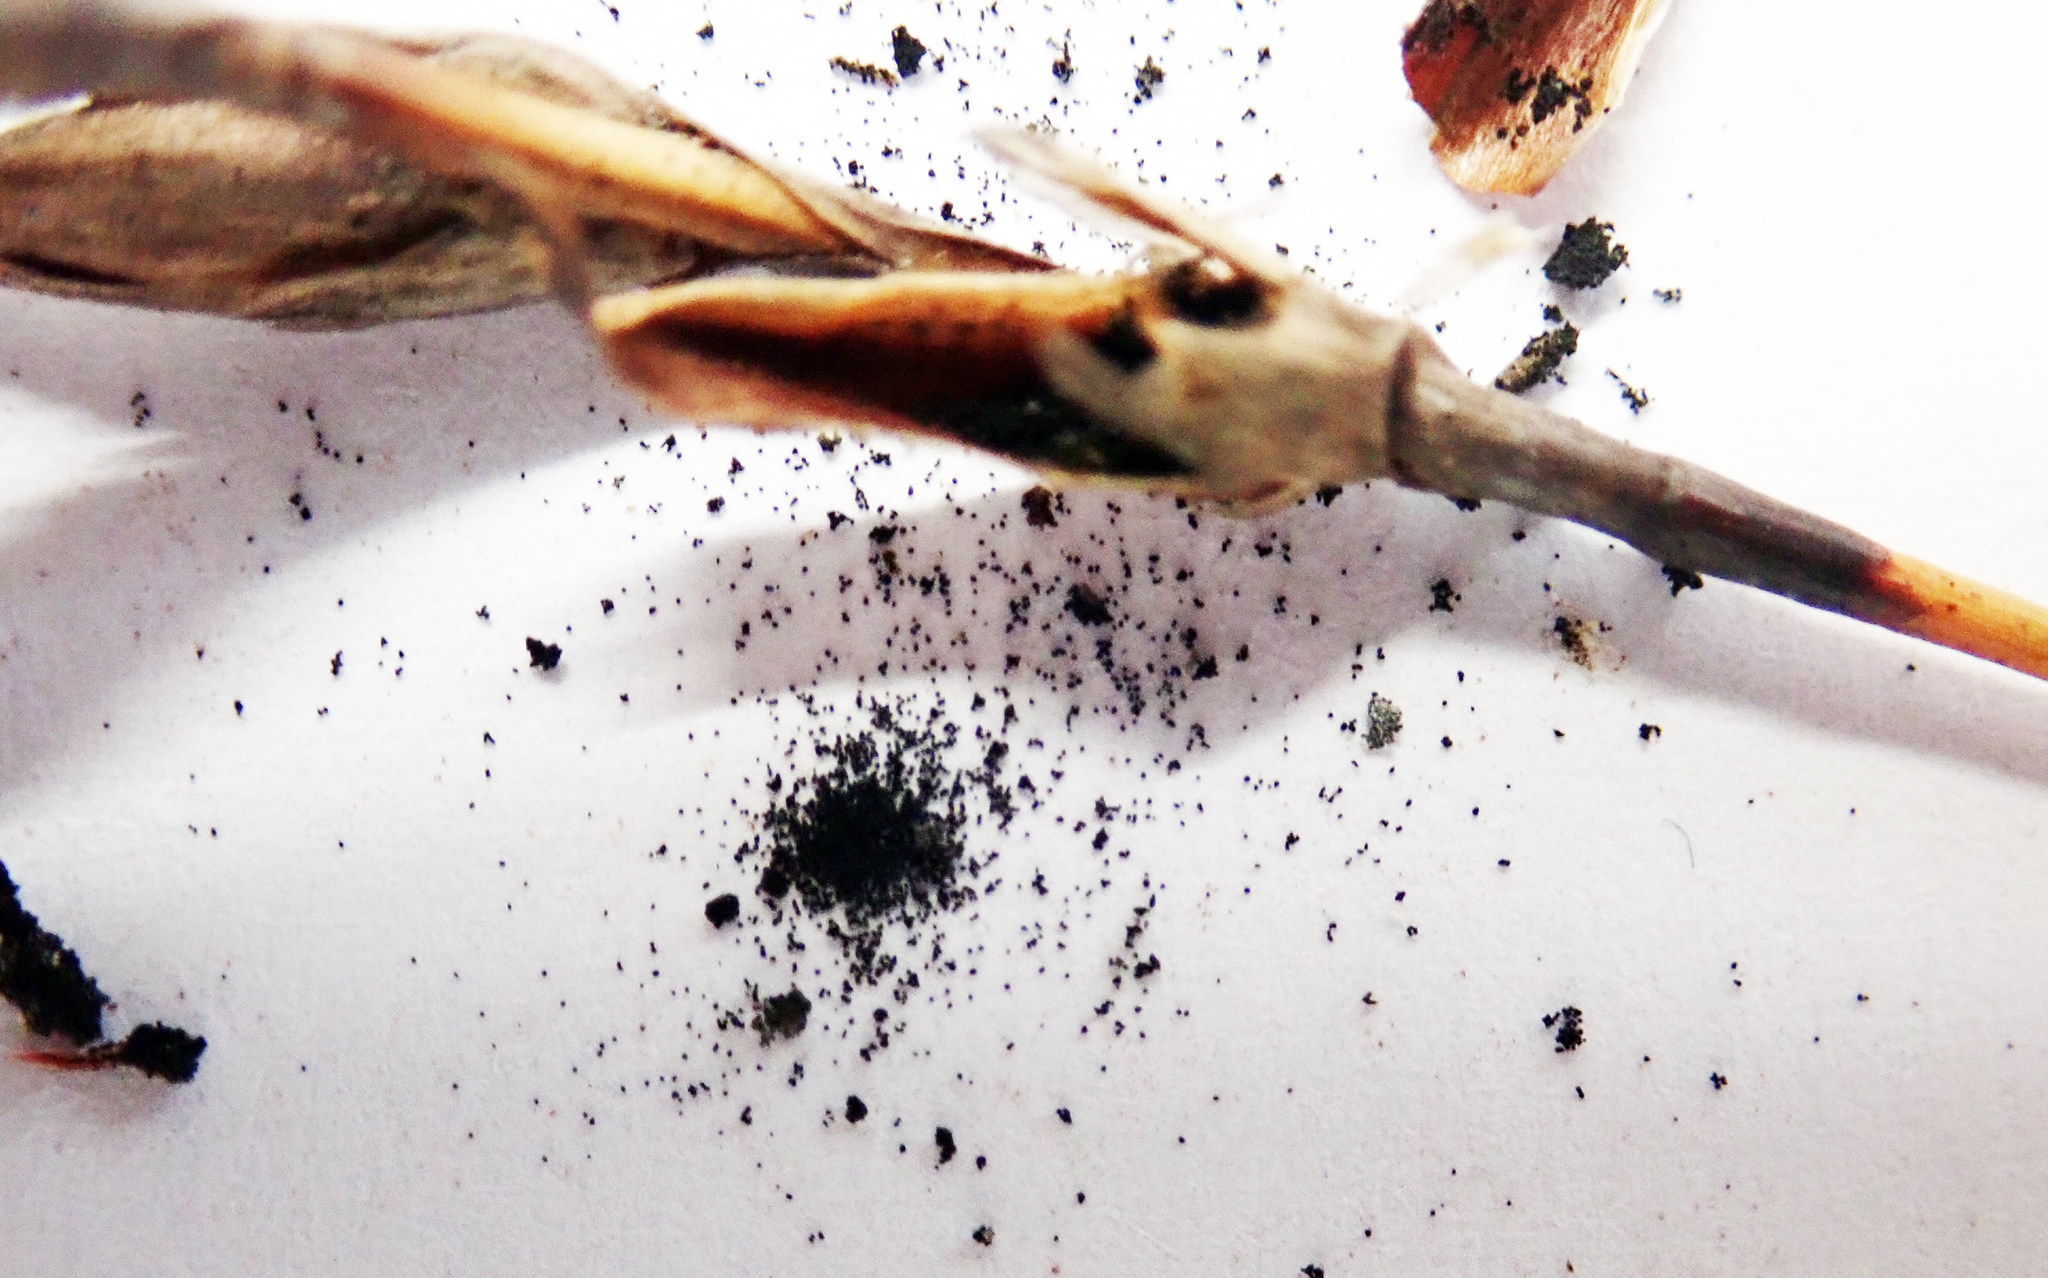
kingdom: Fungi
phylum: Basidiomycota
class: Ustilaginomycetes
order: Ustilaginales
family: Anthracoideaceae
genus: Moreaua
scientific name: Moreaua rodwayi
